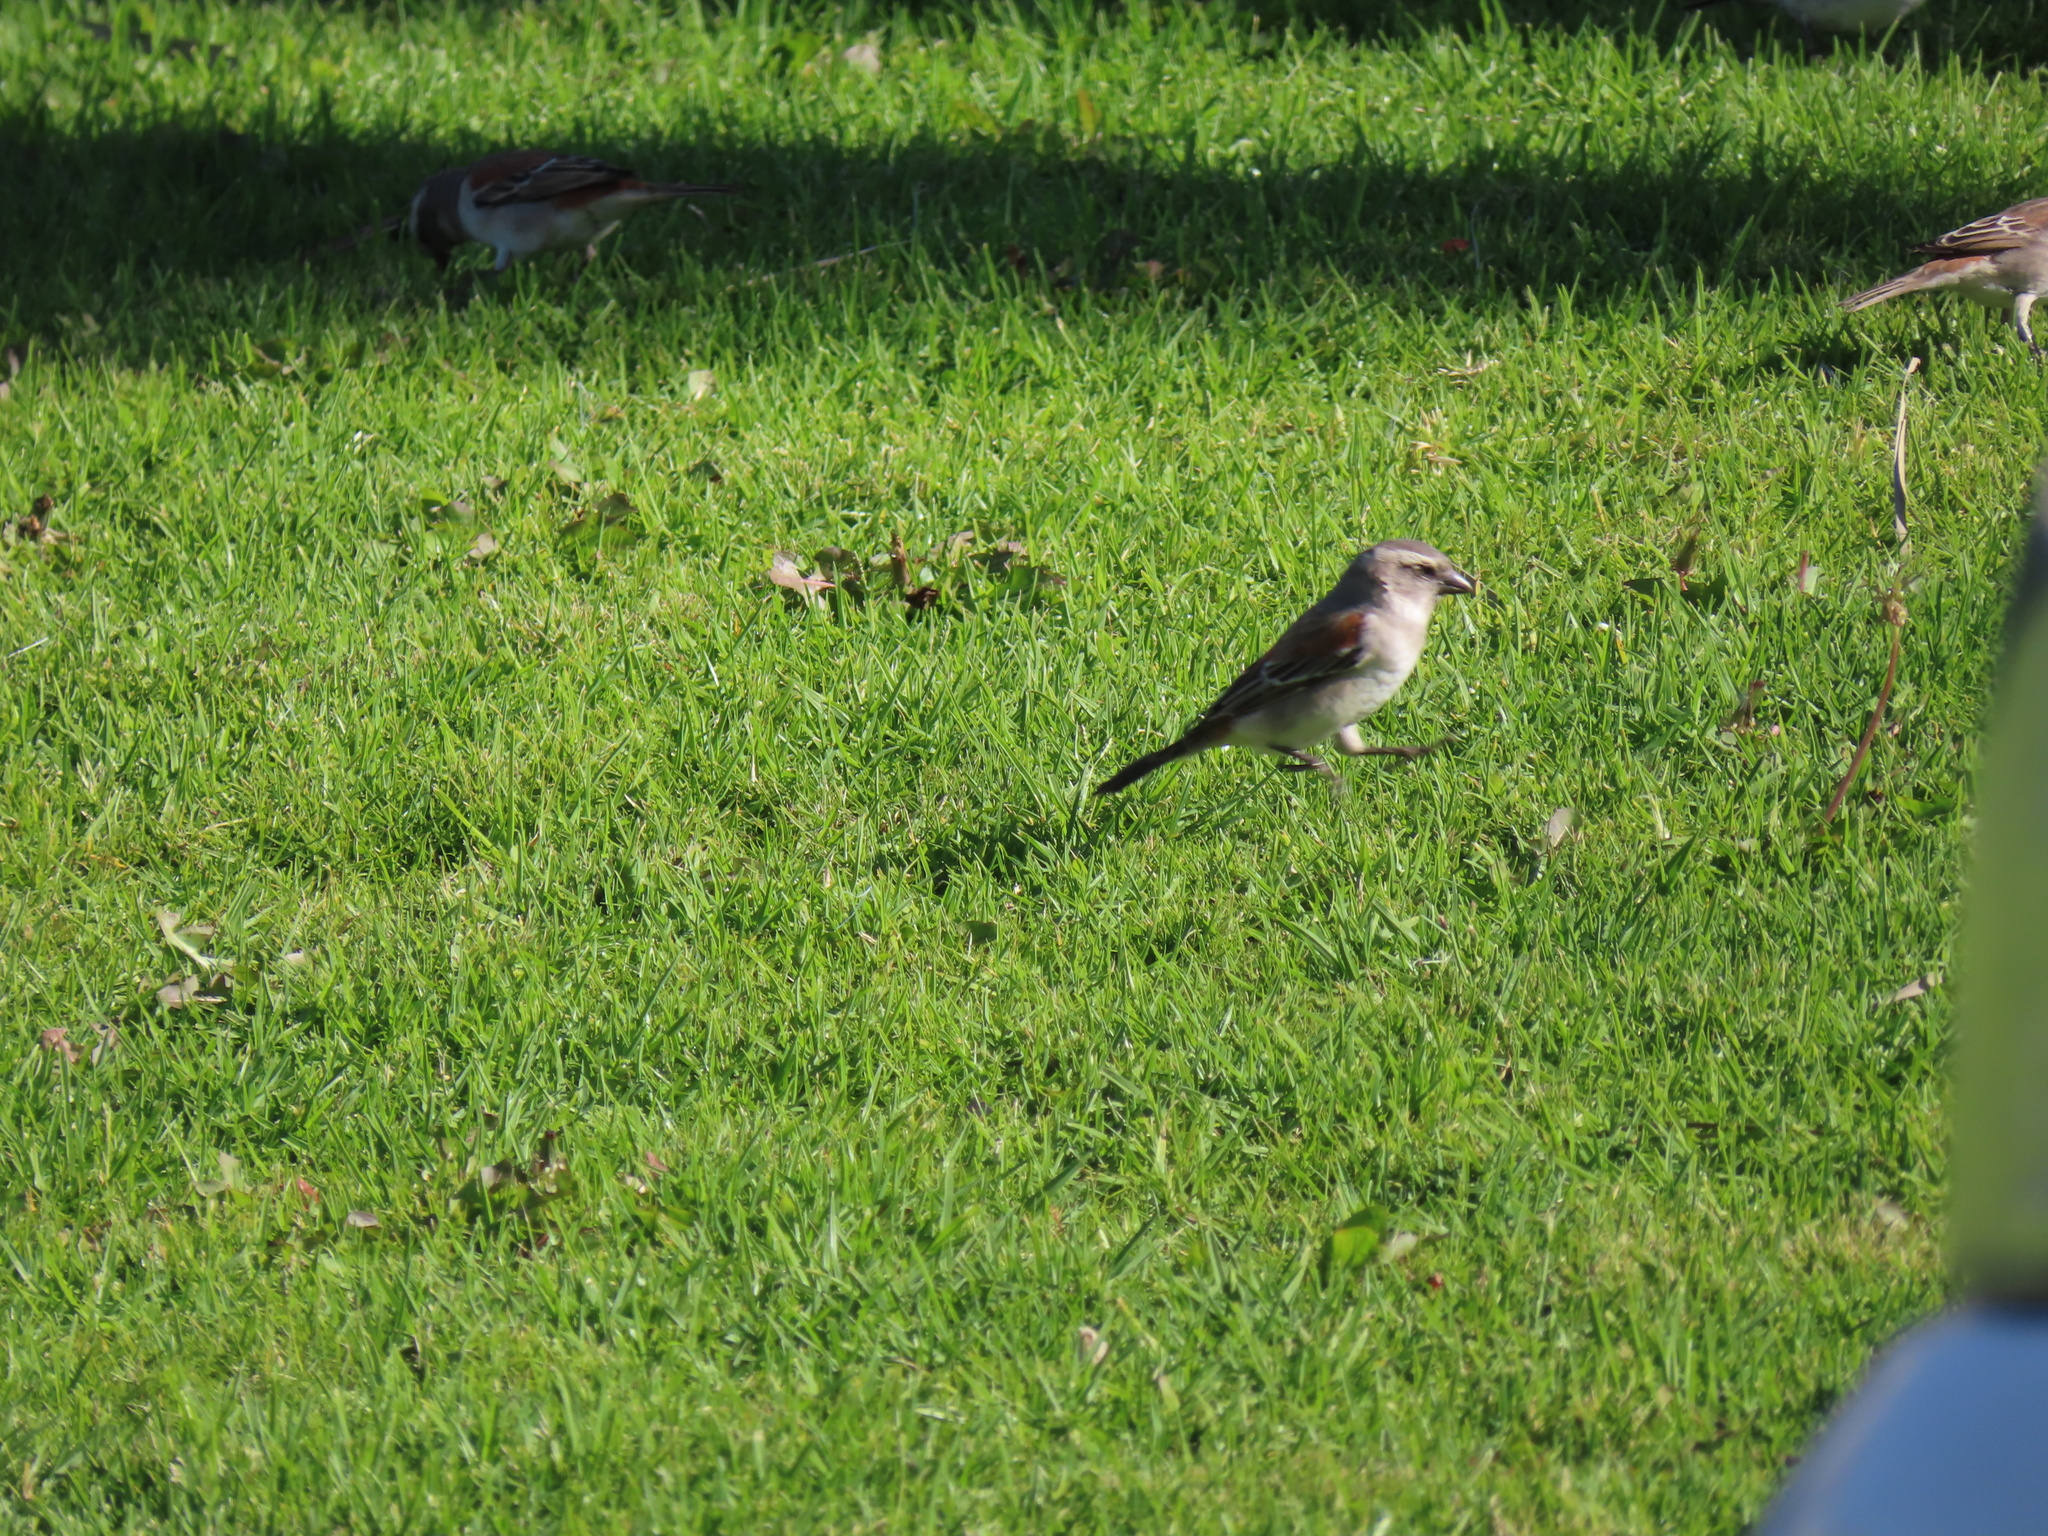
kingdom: Animalia
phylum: Chordata
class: Aves
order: Passeriformes
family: Passeridae
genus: Passer
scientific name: Passer melanurus
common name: Cape sparrow
